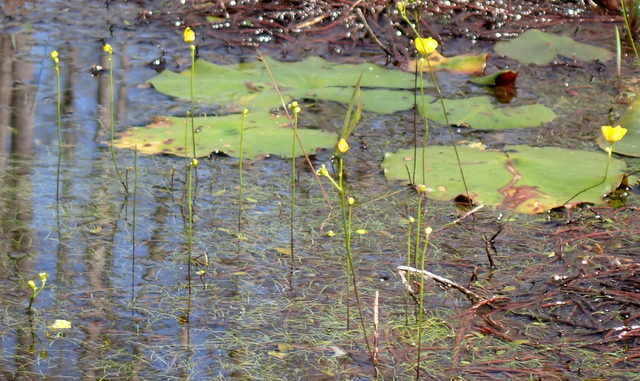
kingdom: Plantae
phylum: Tracheophyta
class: Magnoliopsida
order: Lamiales
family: Lentibulariaceae
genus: Utricularia
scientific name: Utricularia gibba
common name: Humped bladderwort
